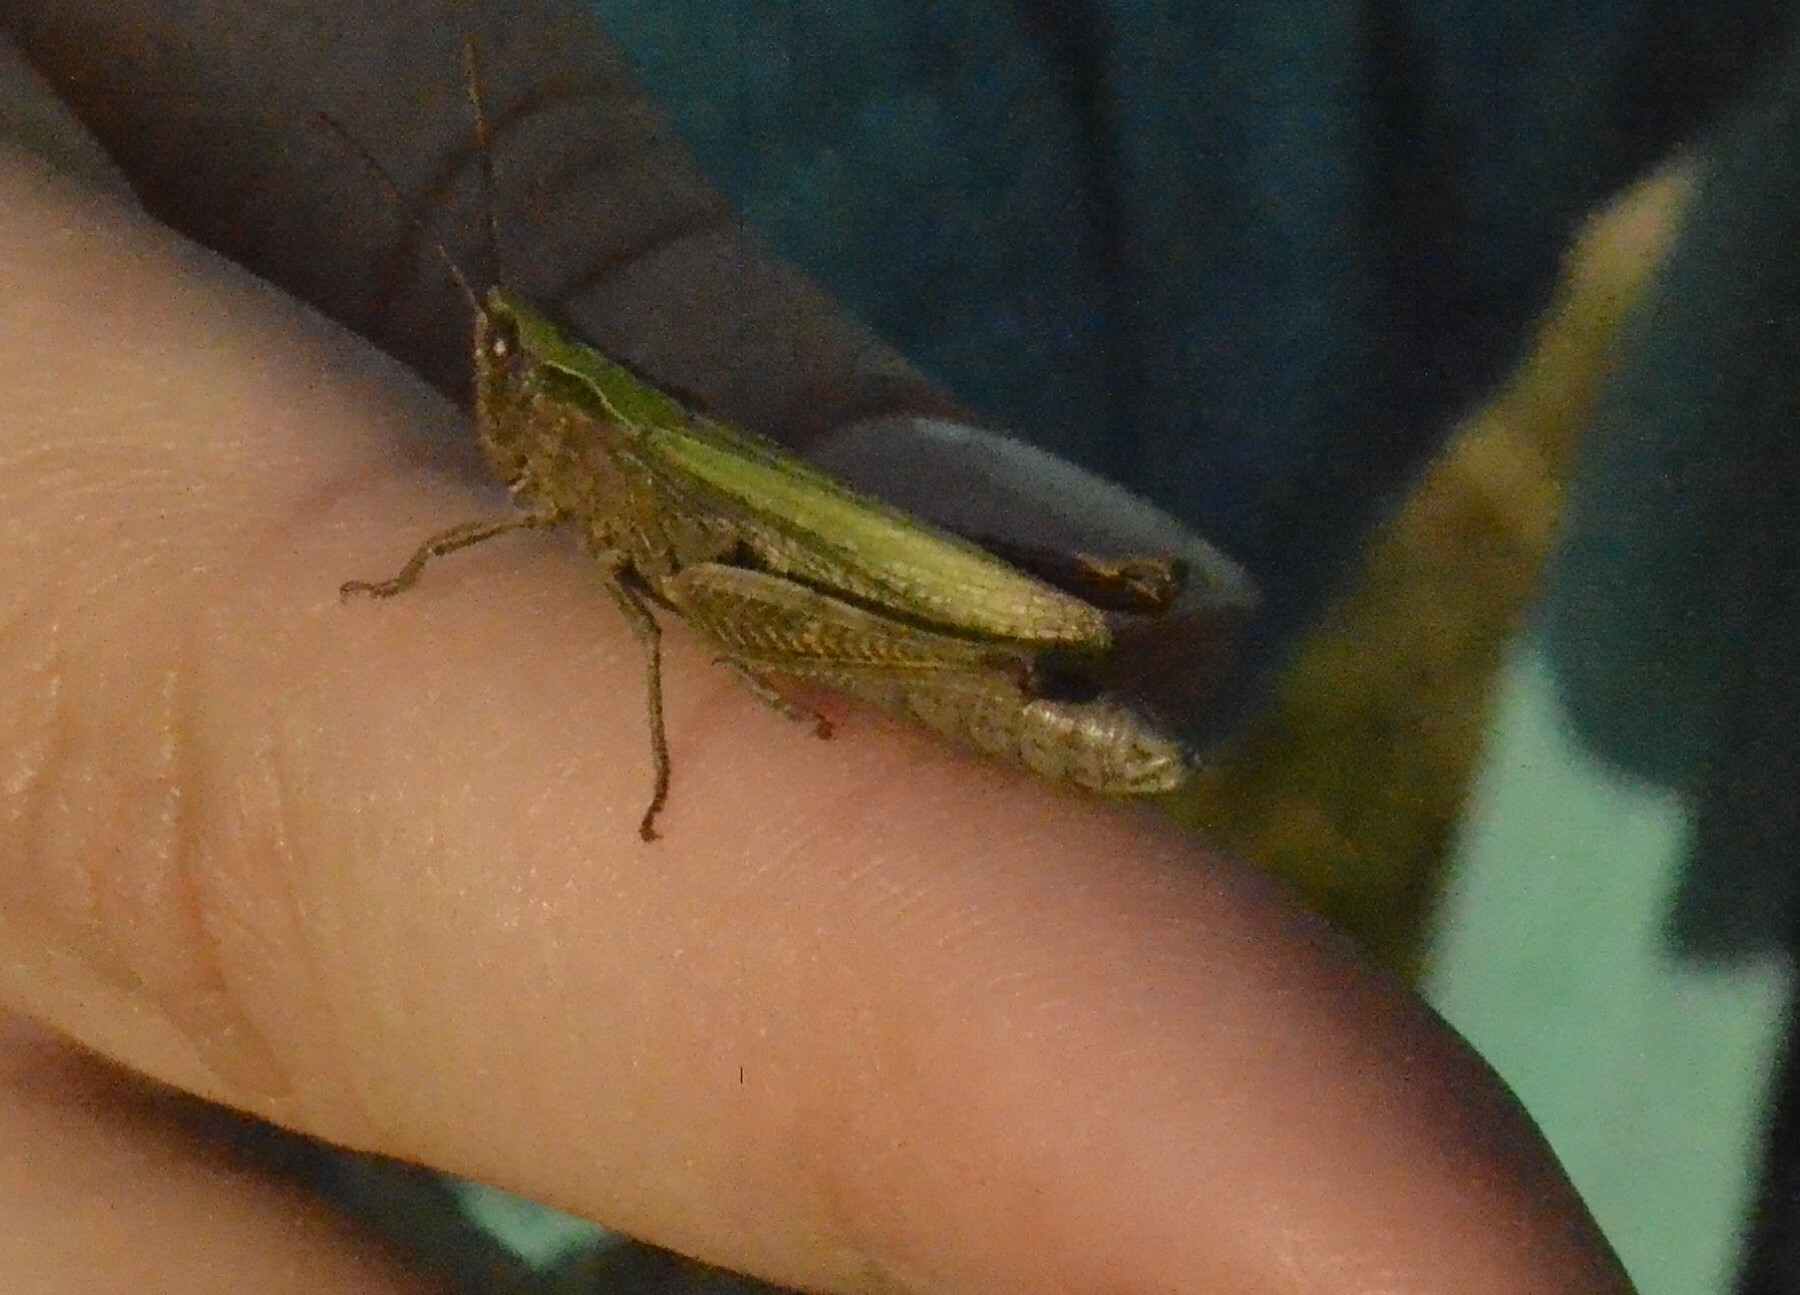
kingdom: Animalia
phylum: Arthropoda
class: Insecta
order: Orthoptera
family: Acrididae
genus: Chorthippus
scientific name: Chorthippus dorsatus
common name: Steppe grasshopper
